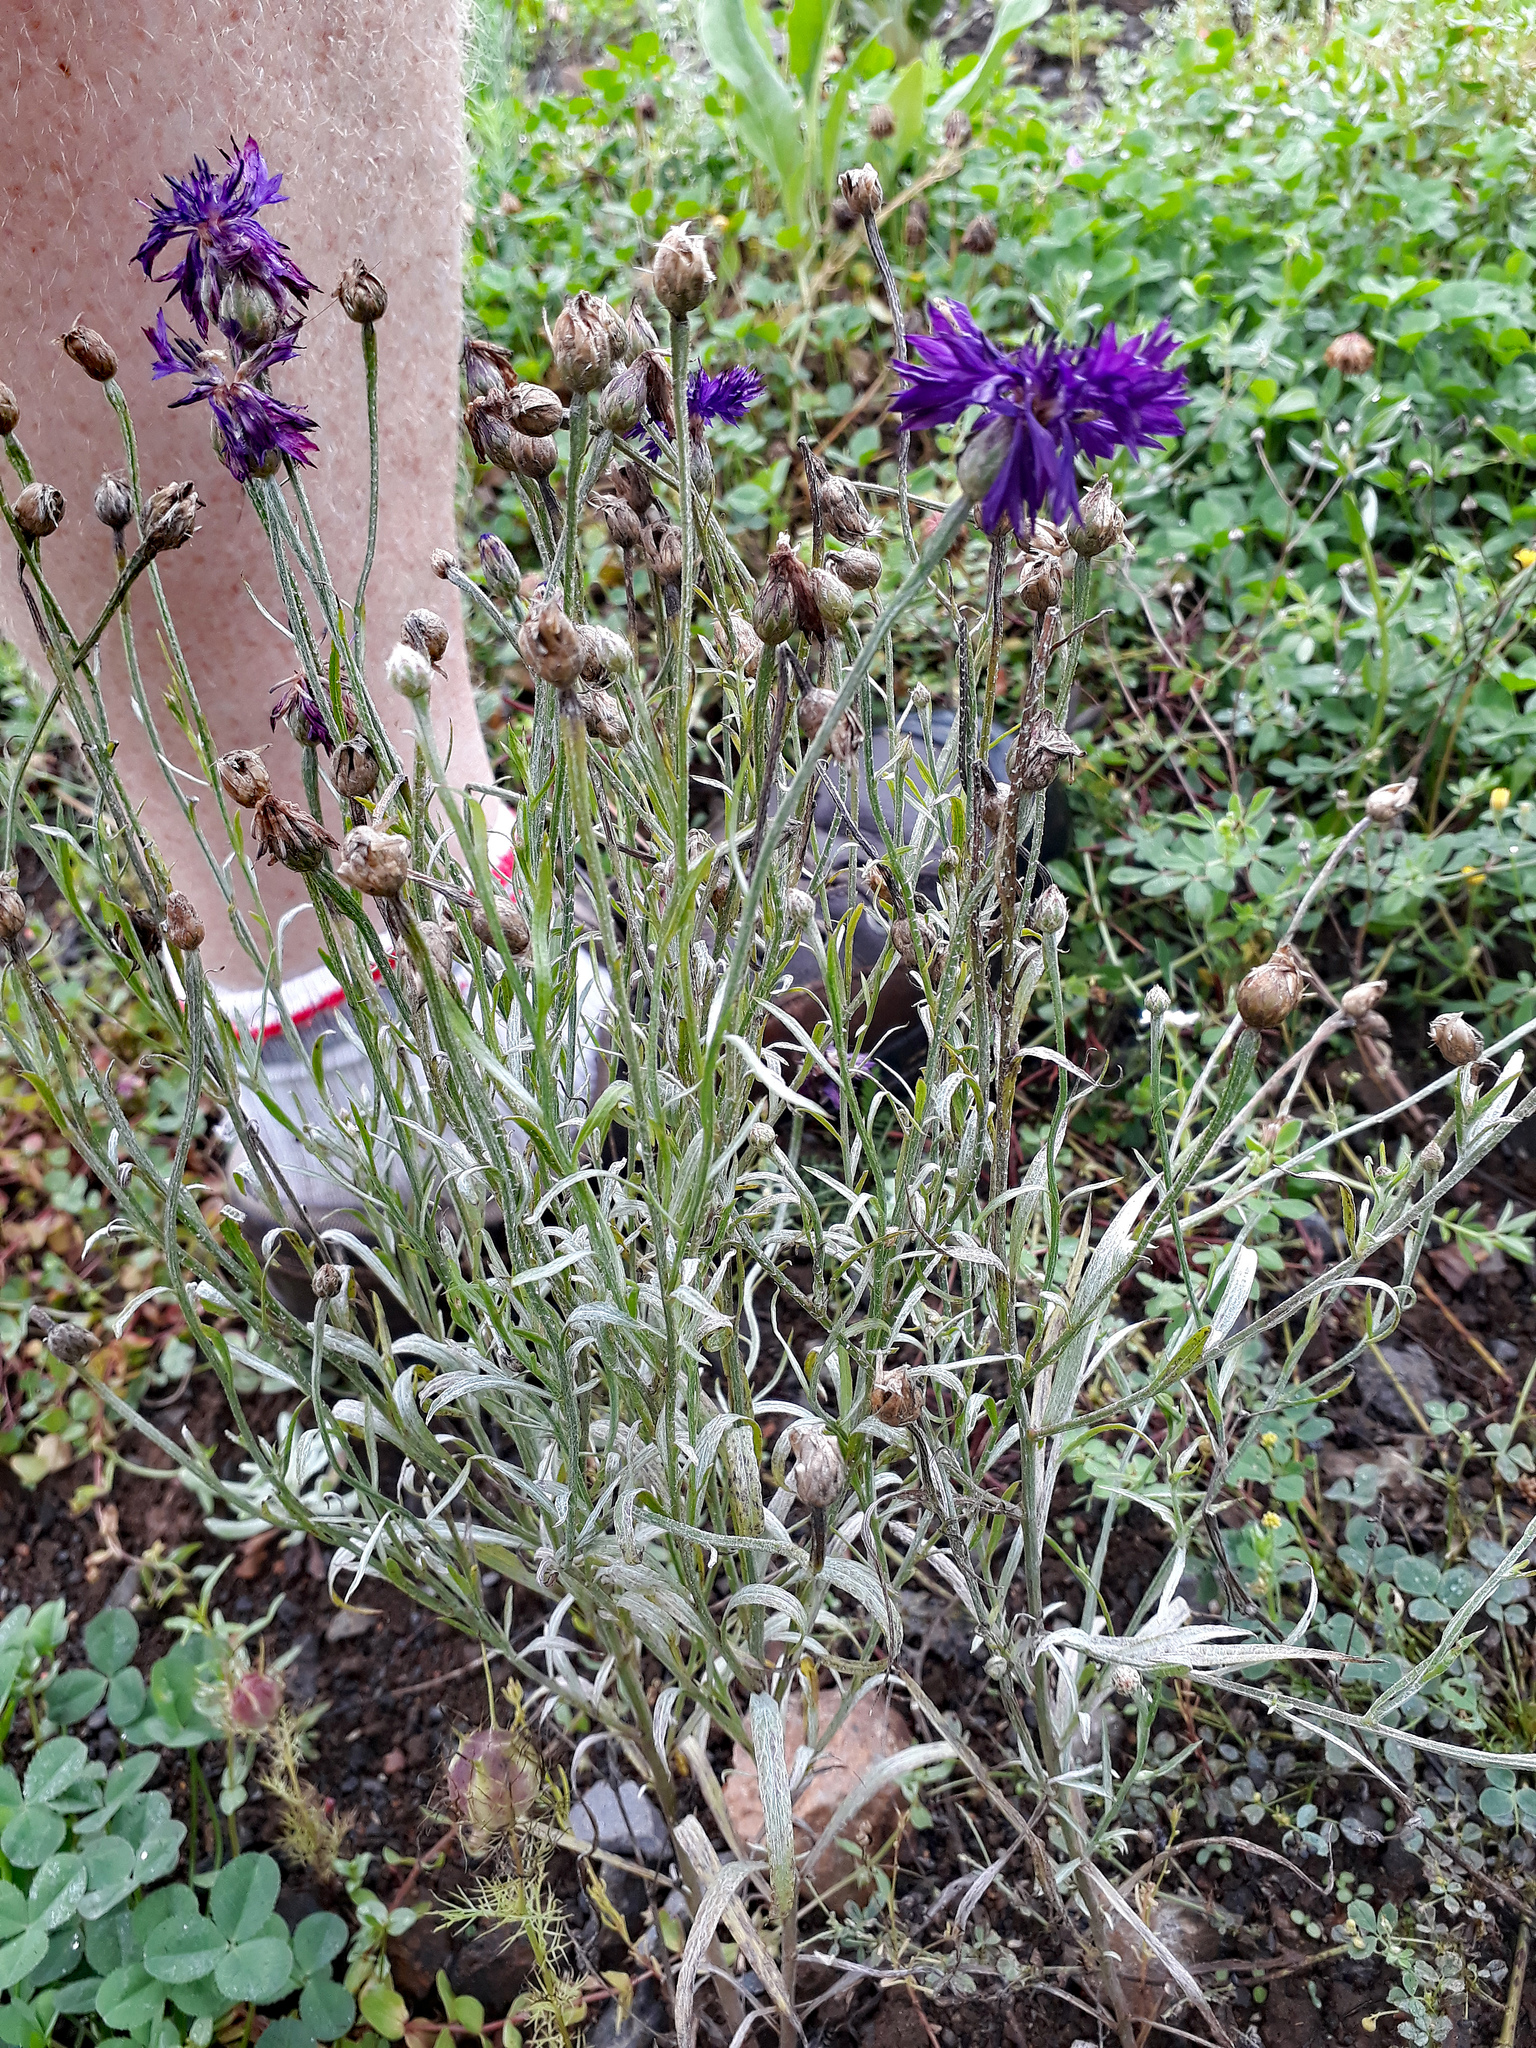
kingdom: Plantae
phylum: Tracheophyta
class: Magnoliopsida
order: Asterales
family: Asteraceae
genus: Centaurea
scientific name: Centaurea cyanus
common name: Cornflower
